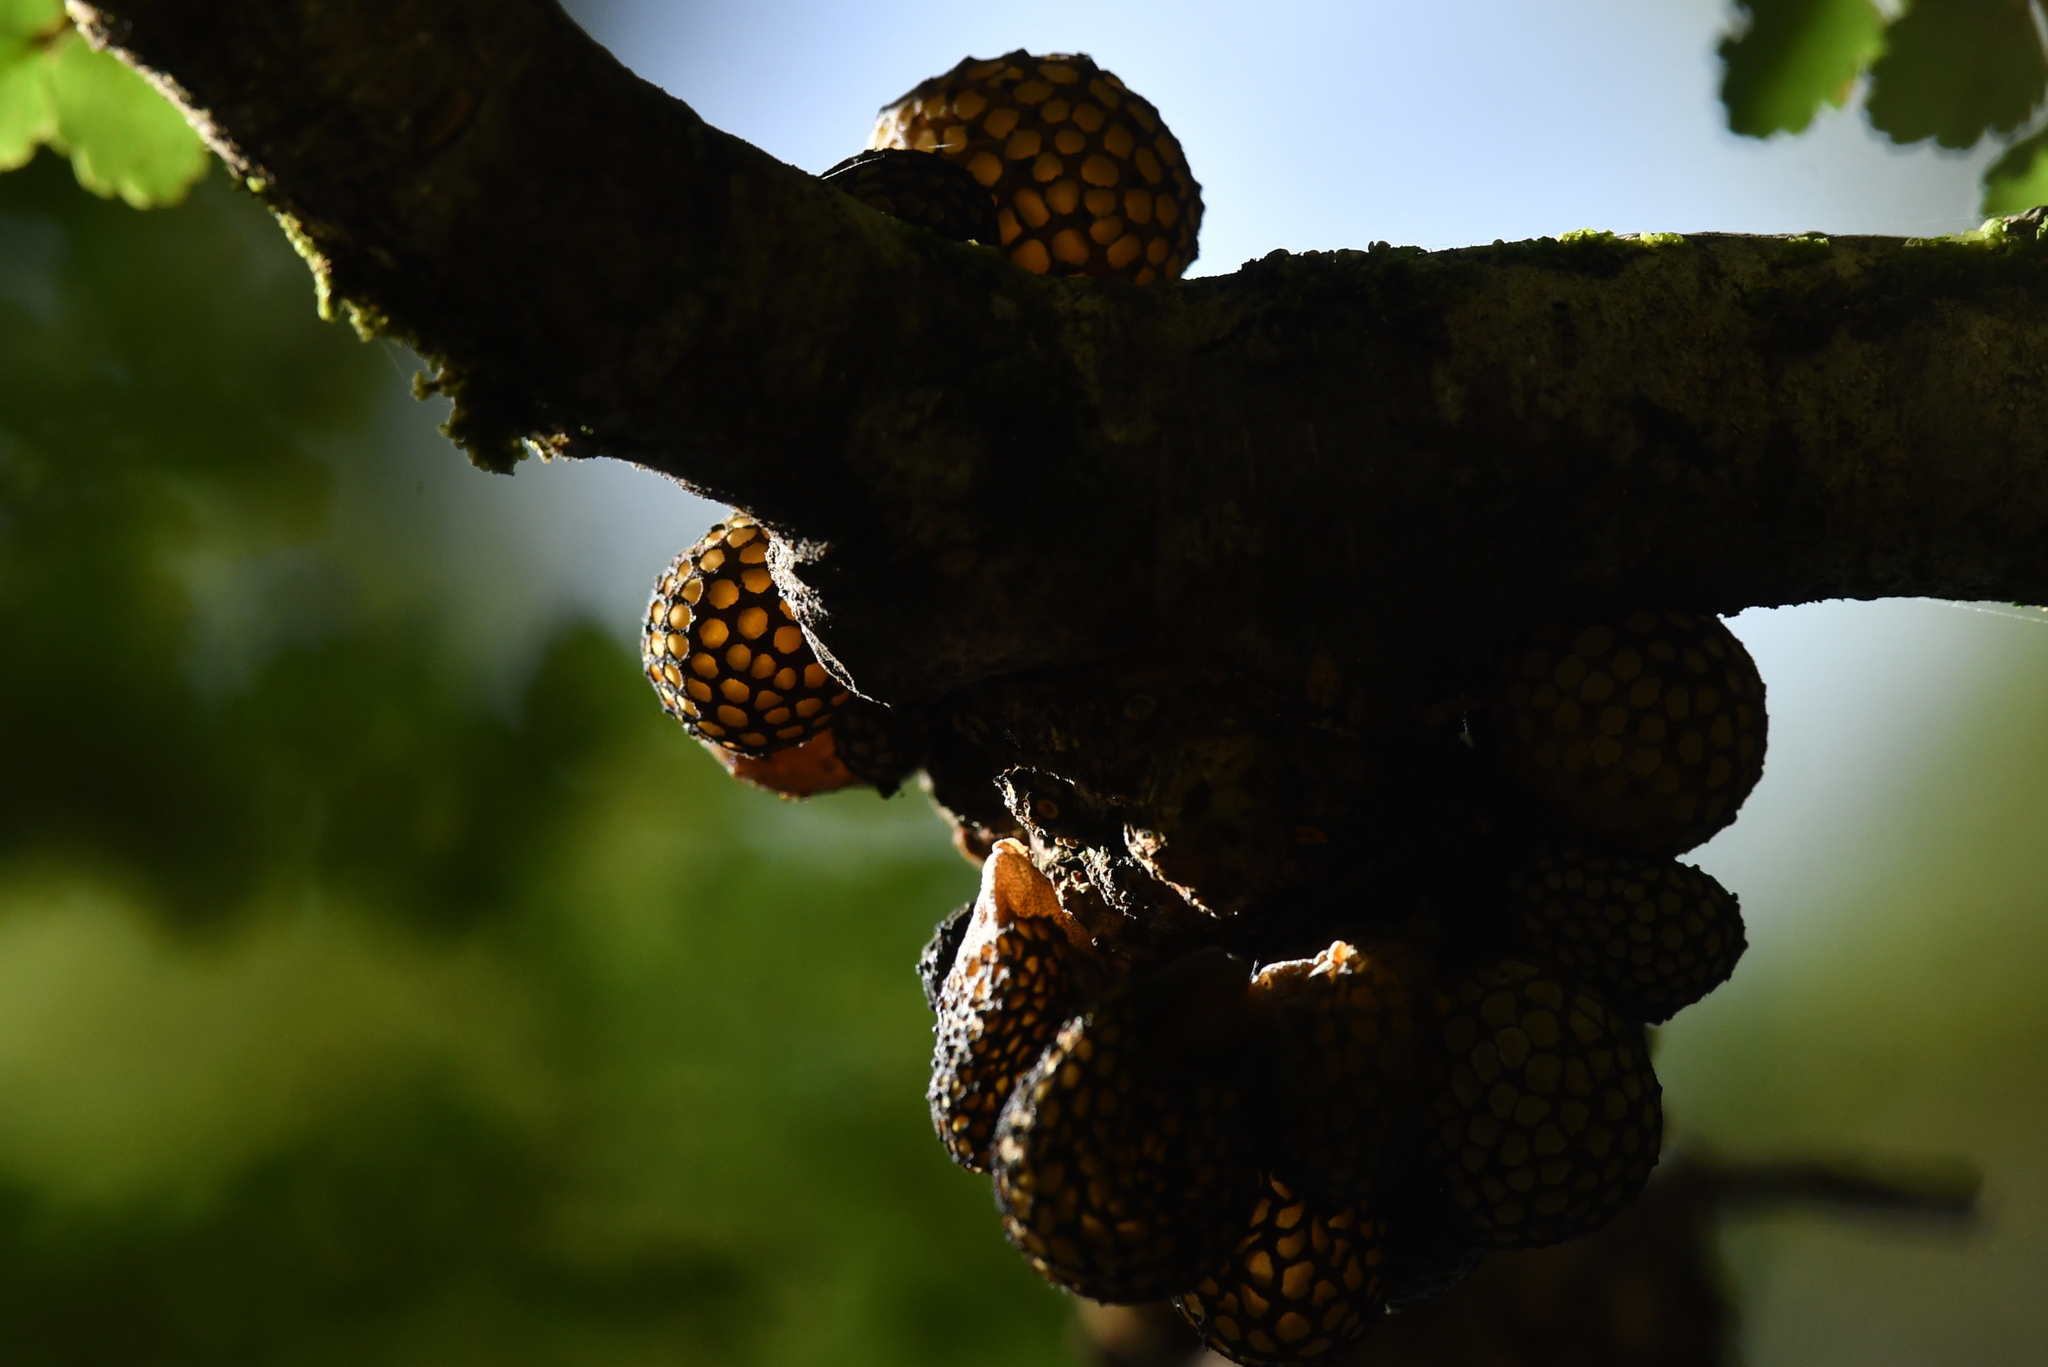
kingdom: Fungi
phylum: Ascomycota
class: Leotiomycetes
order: Cyttariales
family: Cyttariaceae
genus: Cyttaria
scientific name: Cyttaria nigra
